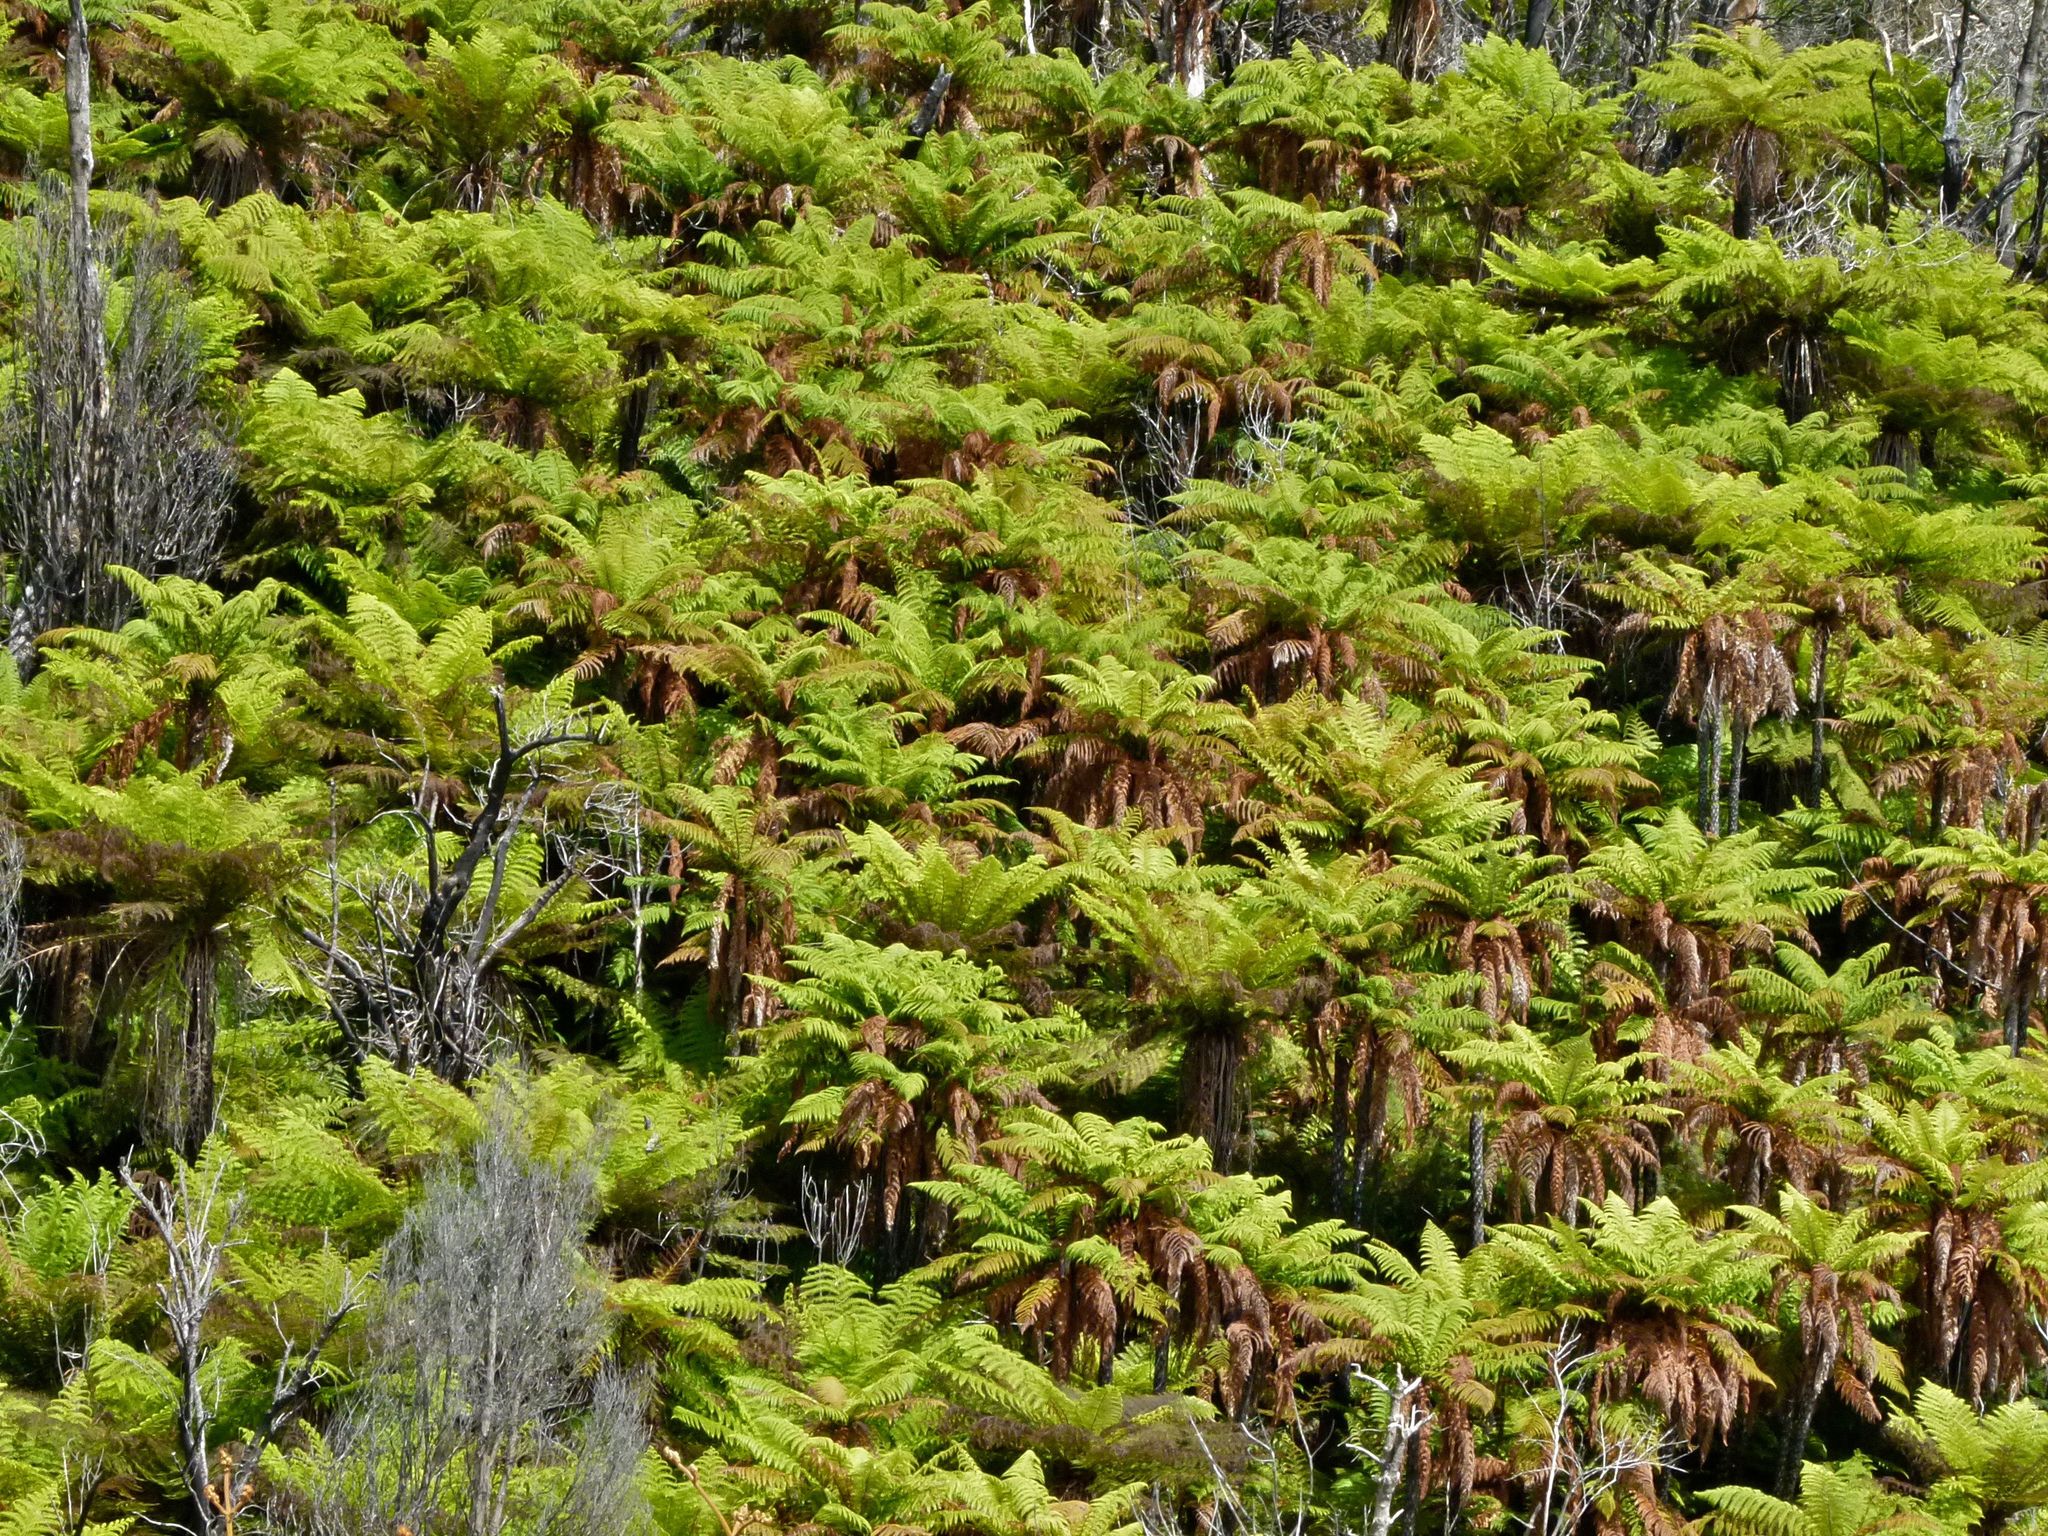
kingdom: Plantae
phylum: Tracheophyta
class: Polypodiopsida
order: Cyatheales
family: Dicksoniaceae
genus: Dicksonia
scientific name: Dicksonia squarrosa
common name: Hard treefern
